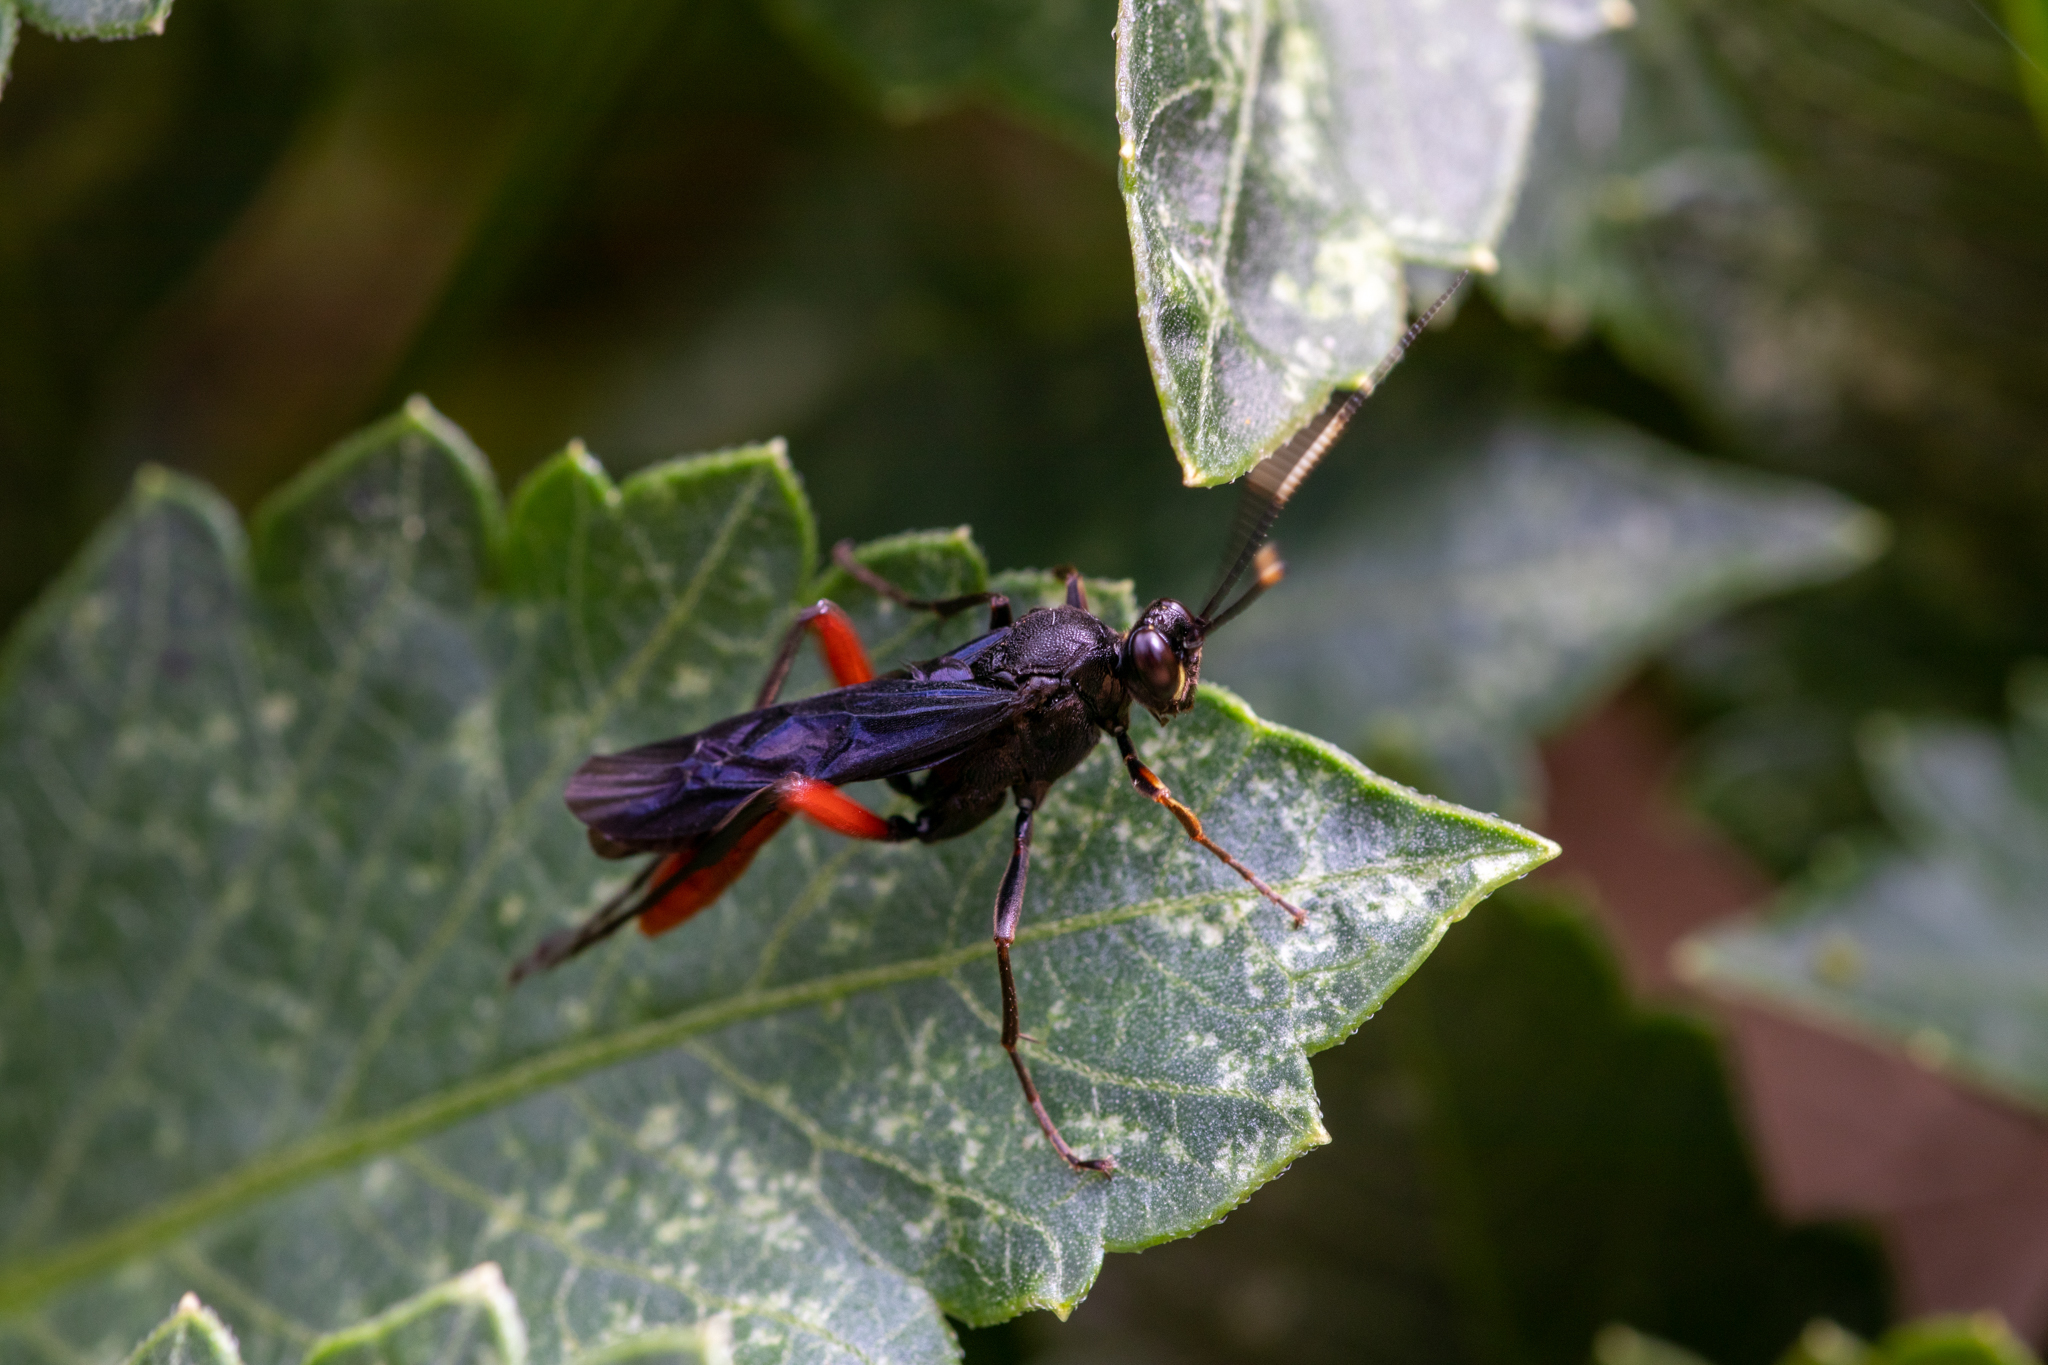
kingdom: Animalia
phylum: Arthropoda
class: Insecta
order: Hymenoptera
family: Ichneumonidae
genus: Limonethe
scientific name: Limonethe maurator
